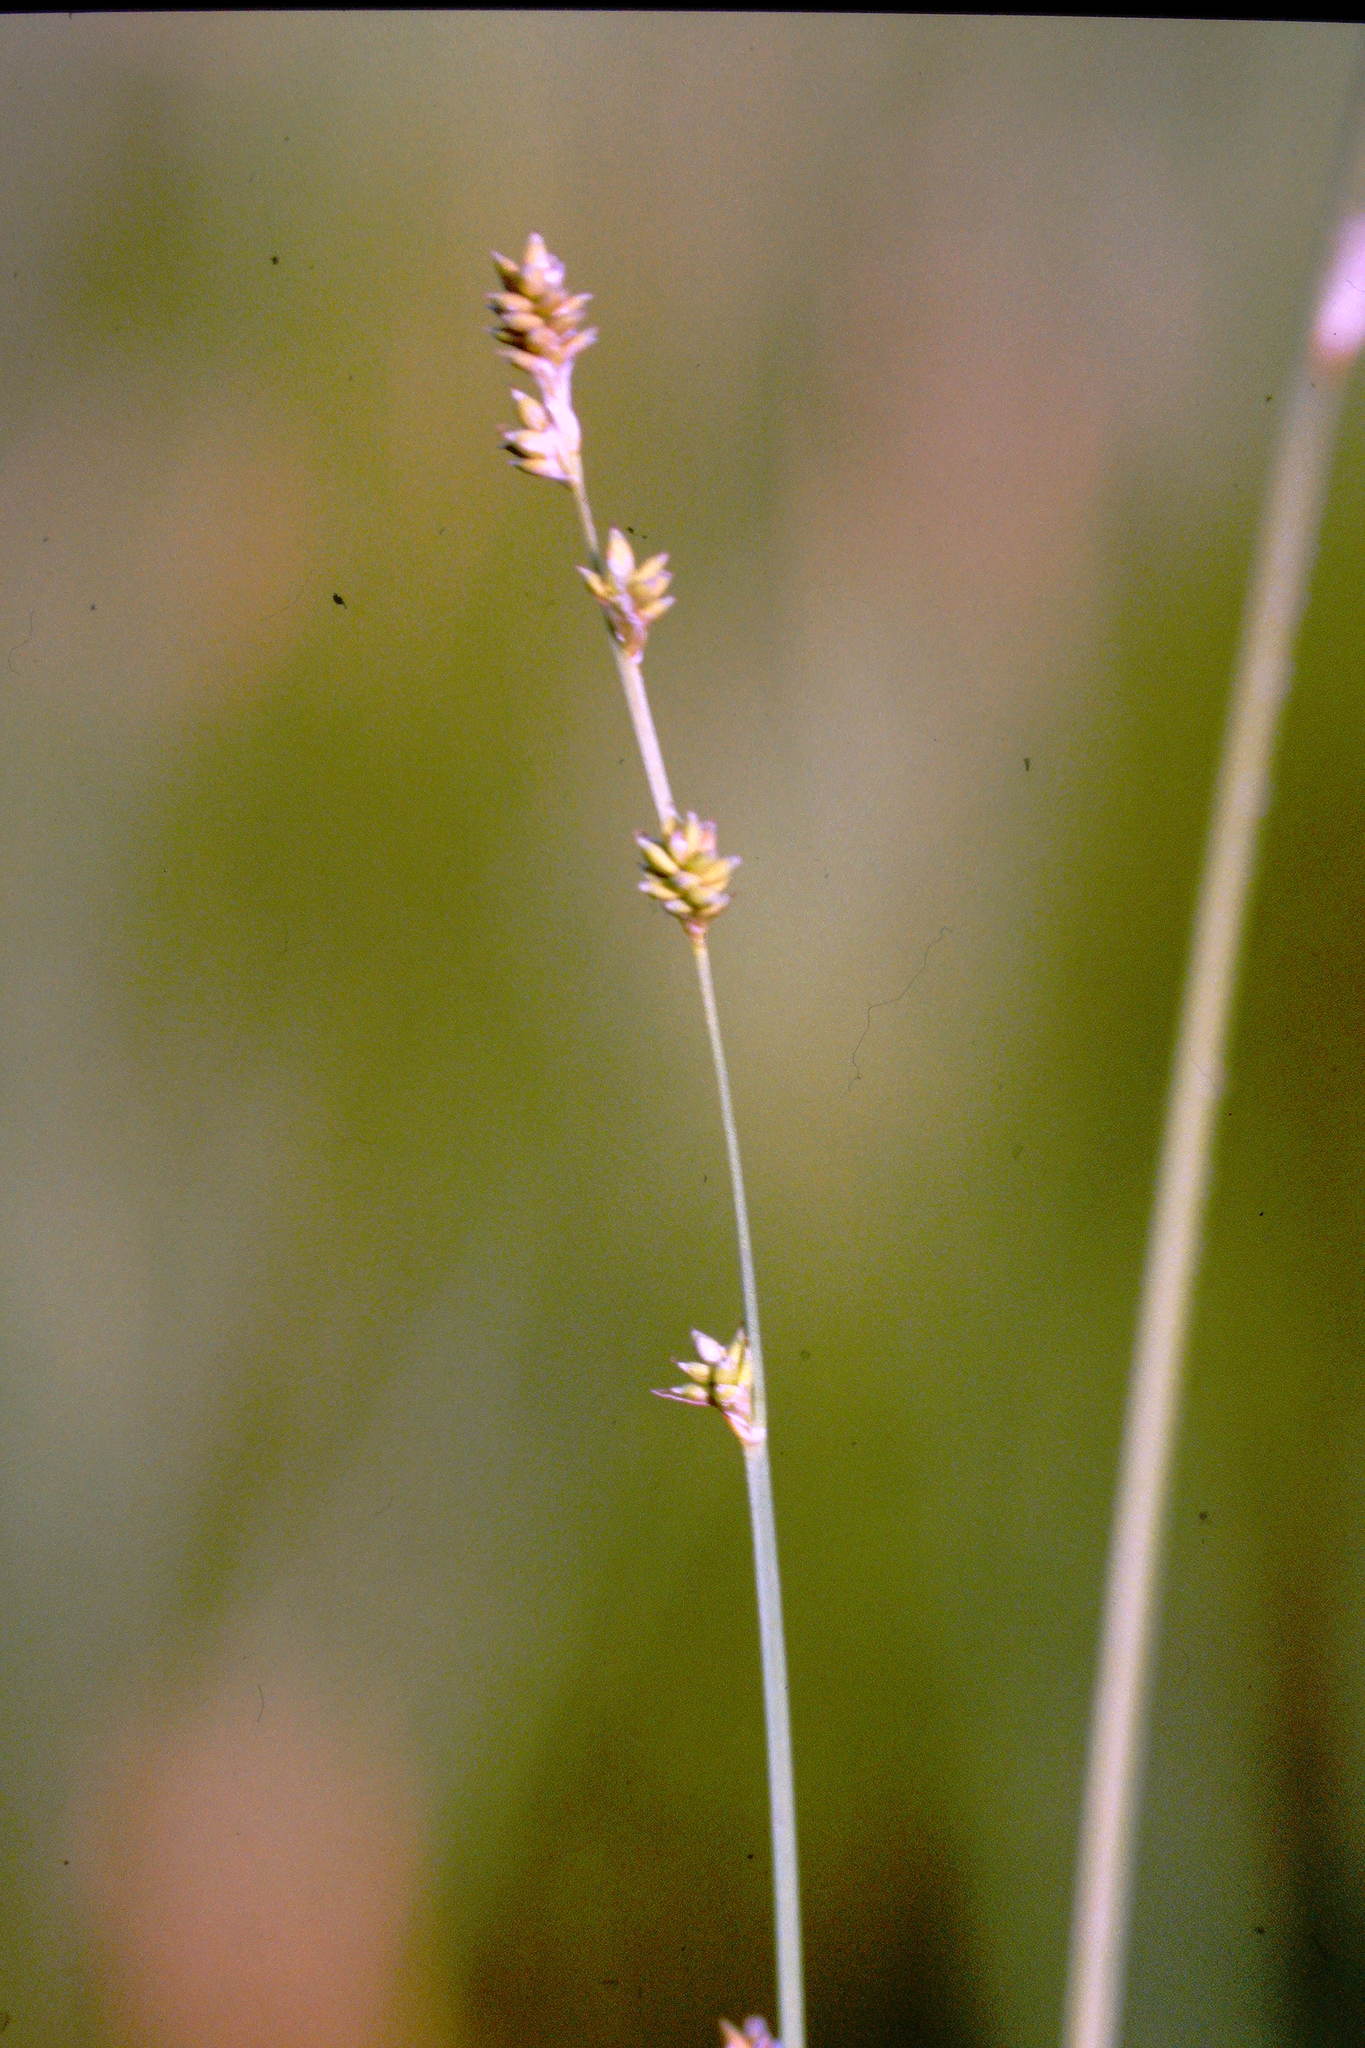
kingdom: Plantae
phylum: Tracheophyta
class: Liliopsida
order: Poales
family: Cyperaceae
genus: Carex
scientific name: Carex brunnescens
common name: Brown sedge
